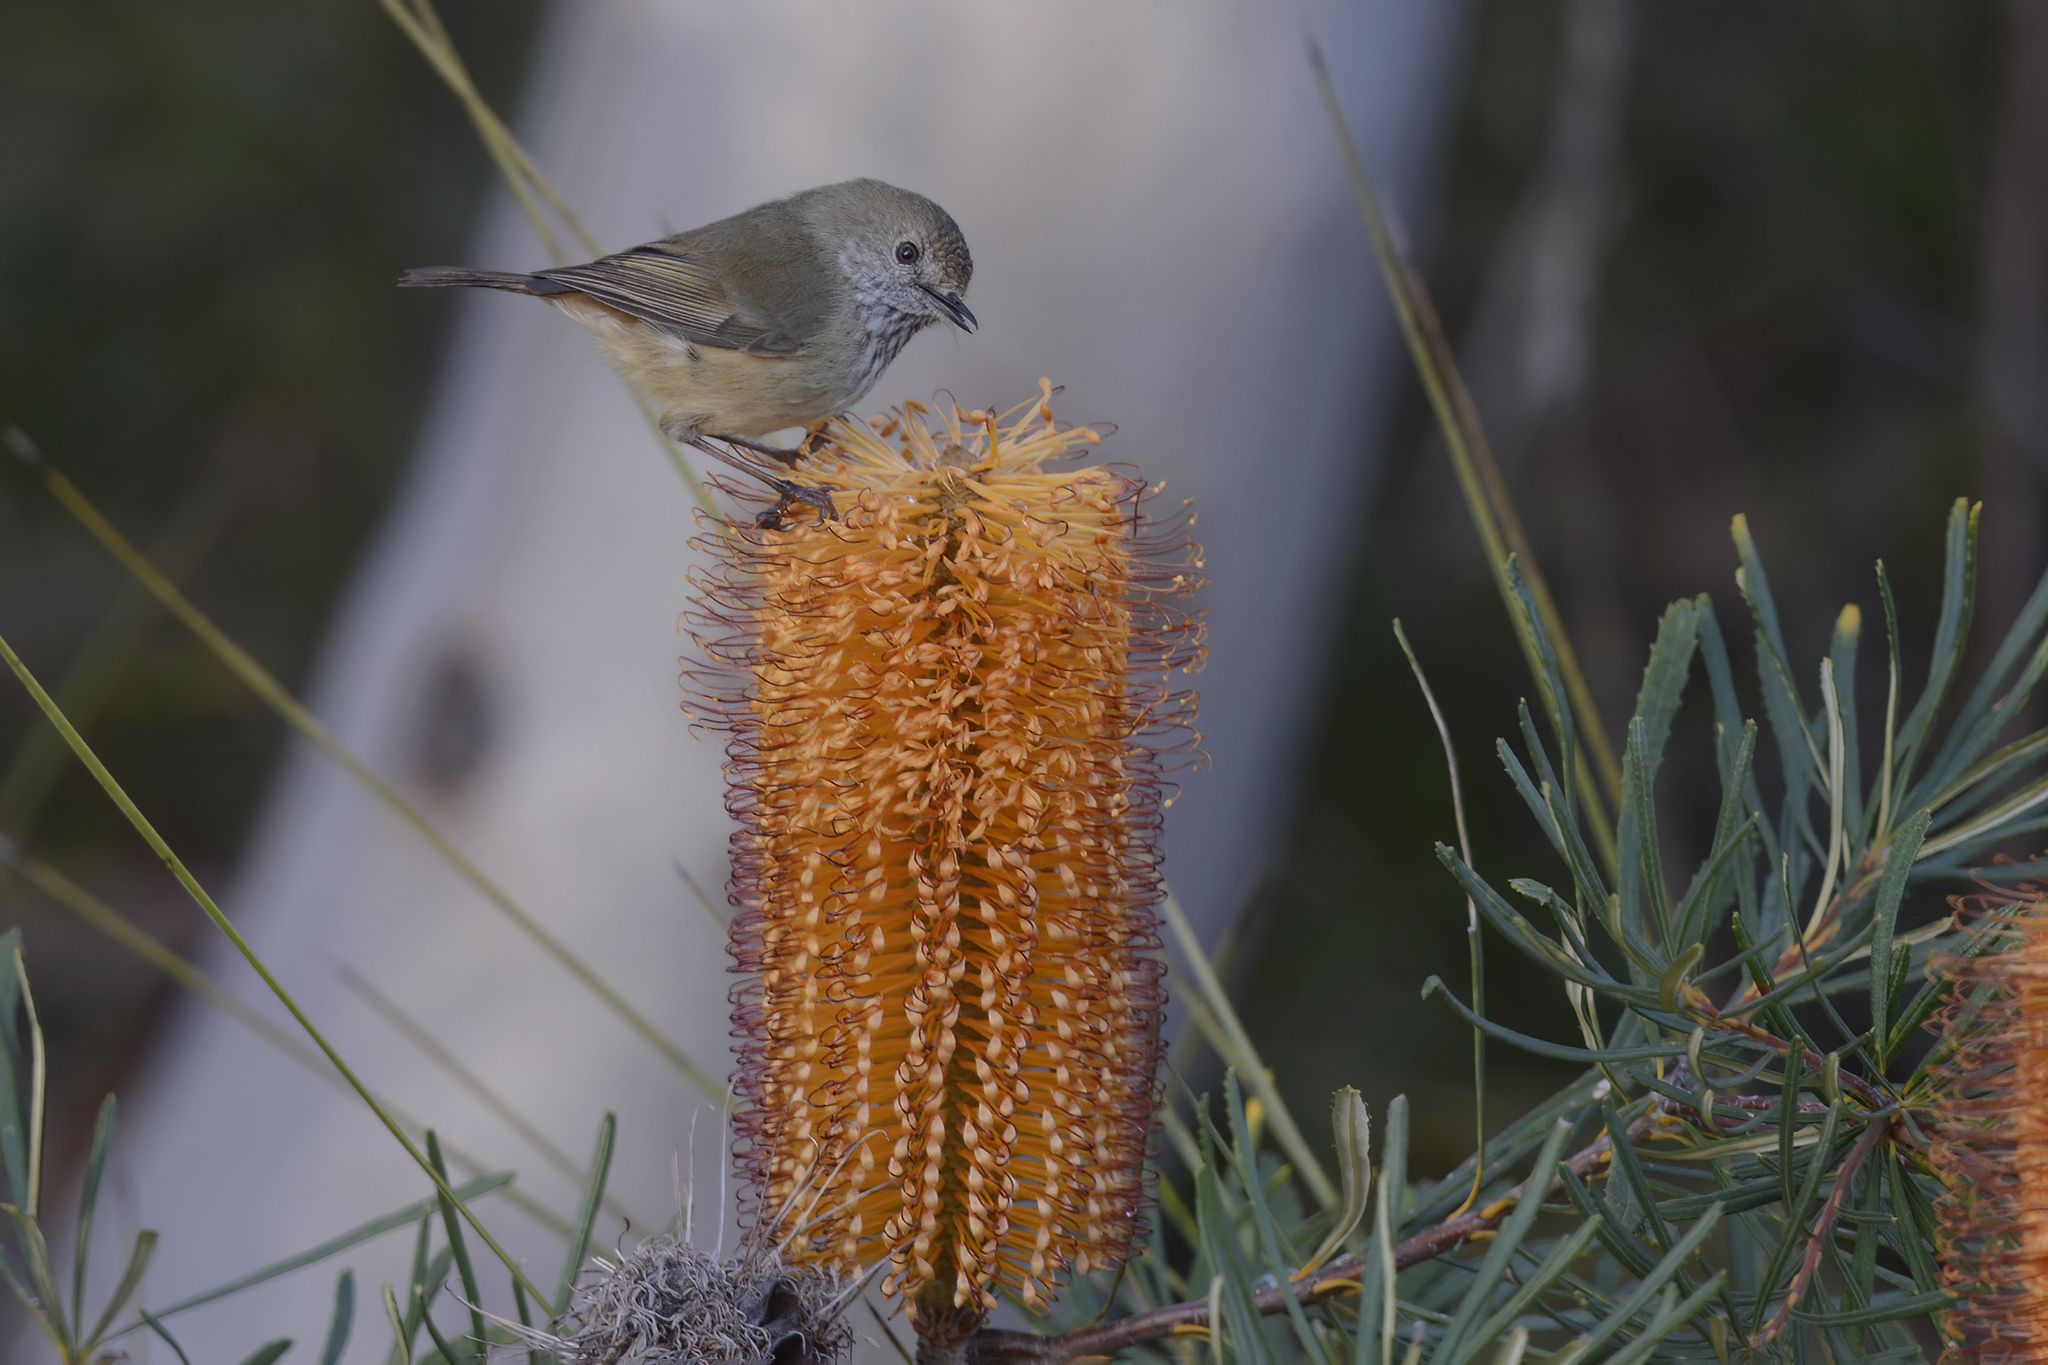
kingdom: Animalia
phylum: Chordata
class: Aves
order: Passeriformes
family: Acanthizidae
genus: Acanthiza
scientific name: Acanthiza pusilla
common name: Brown thornbill
